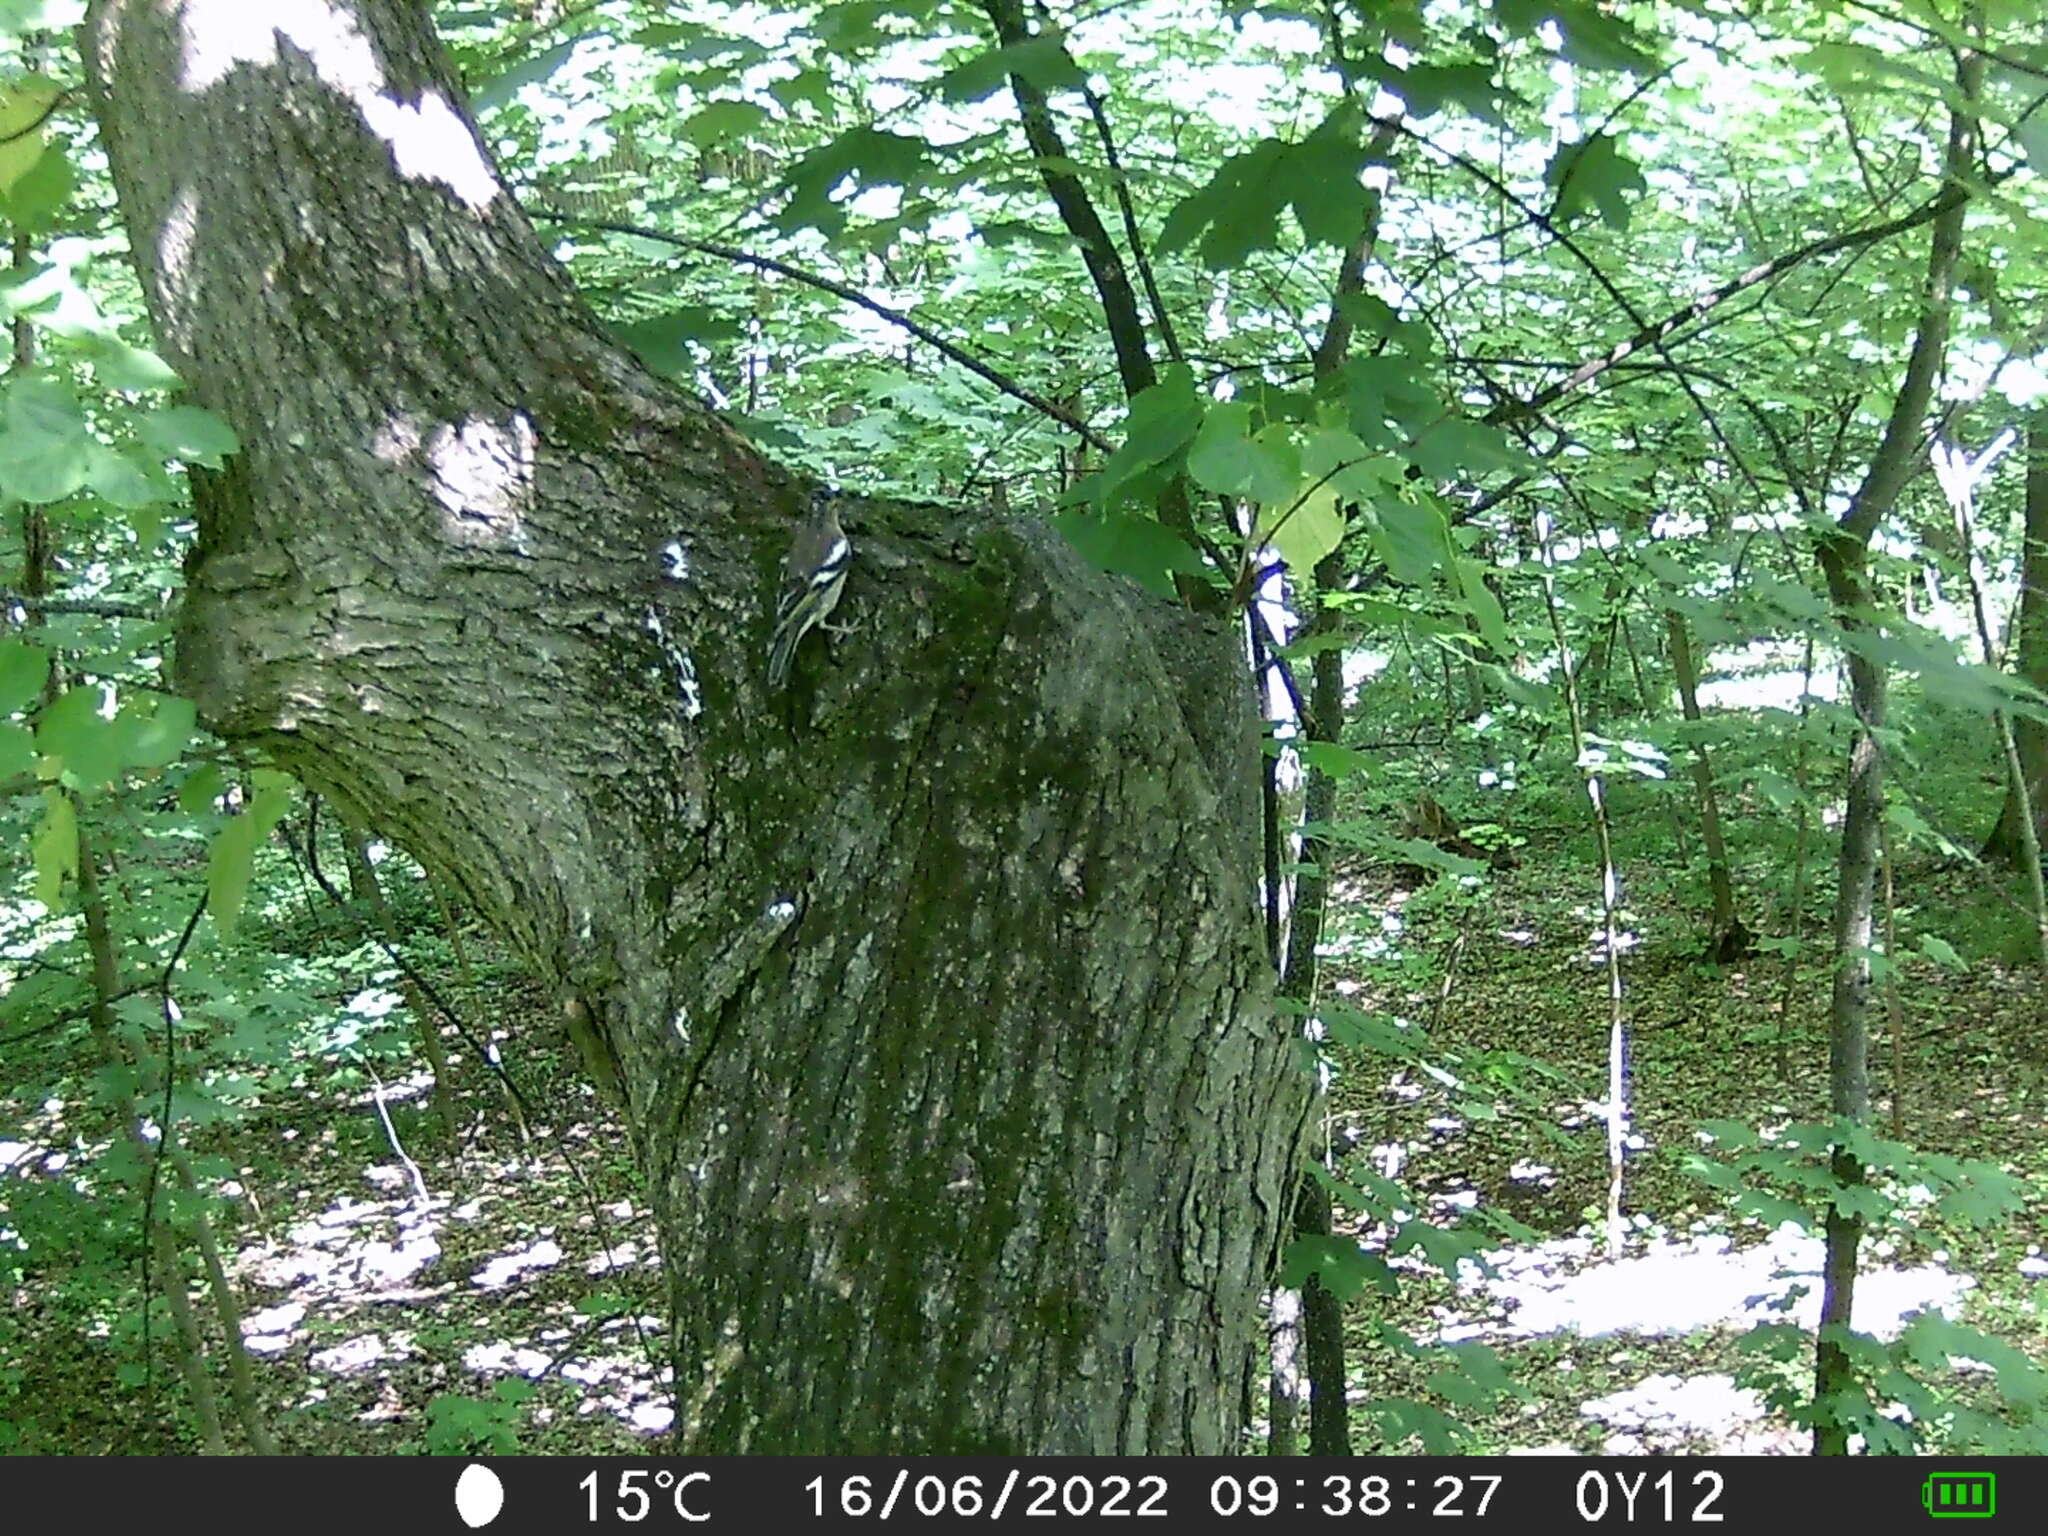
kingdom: Animalia
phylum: Chordata
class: Aves
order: Passeriformes
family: Fringillidae
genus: Fringilla
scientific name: Fringilla coelebs
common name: Common chaffinch
